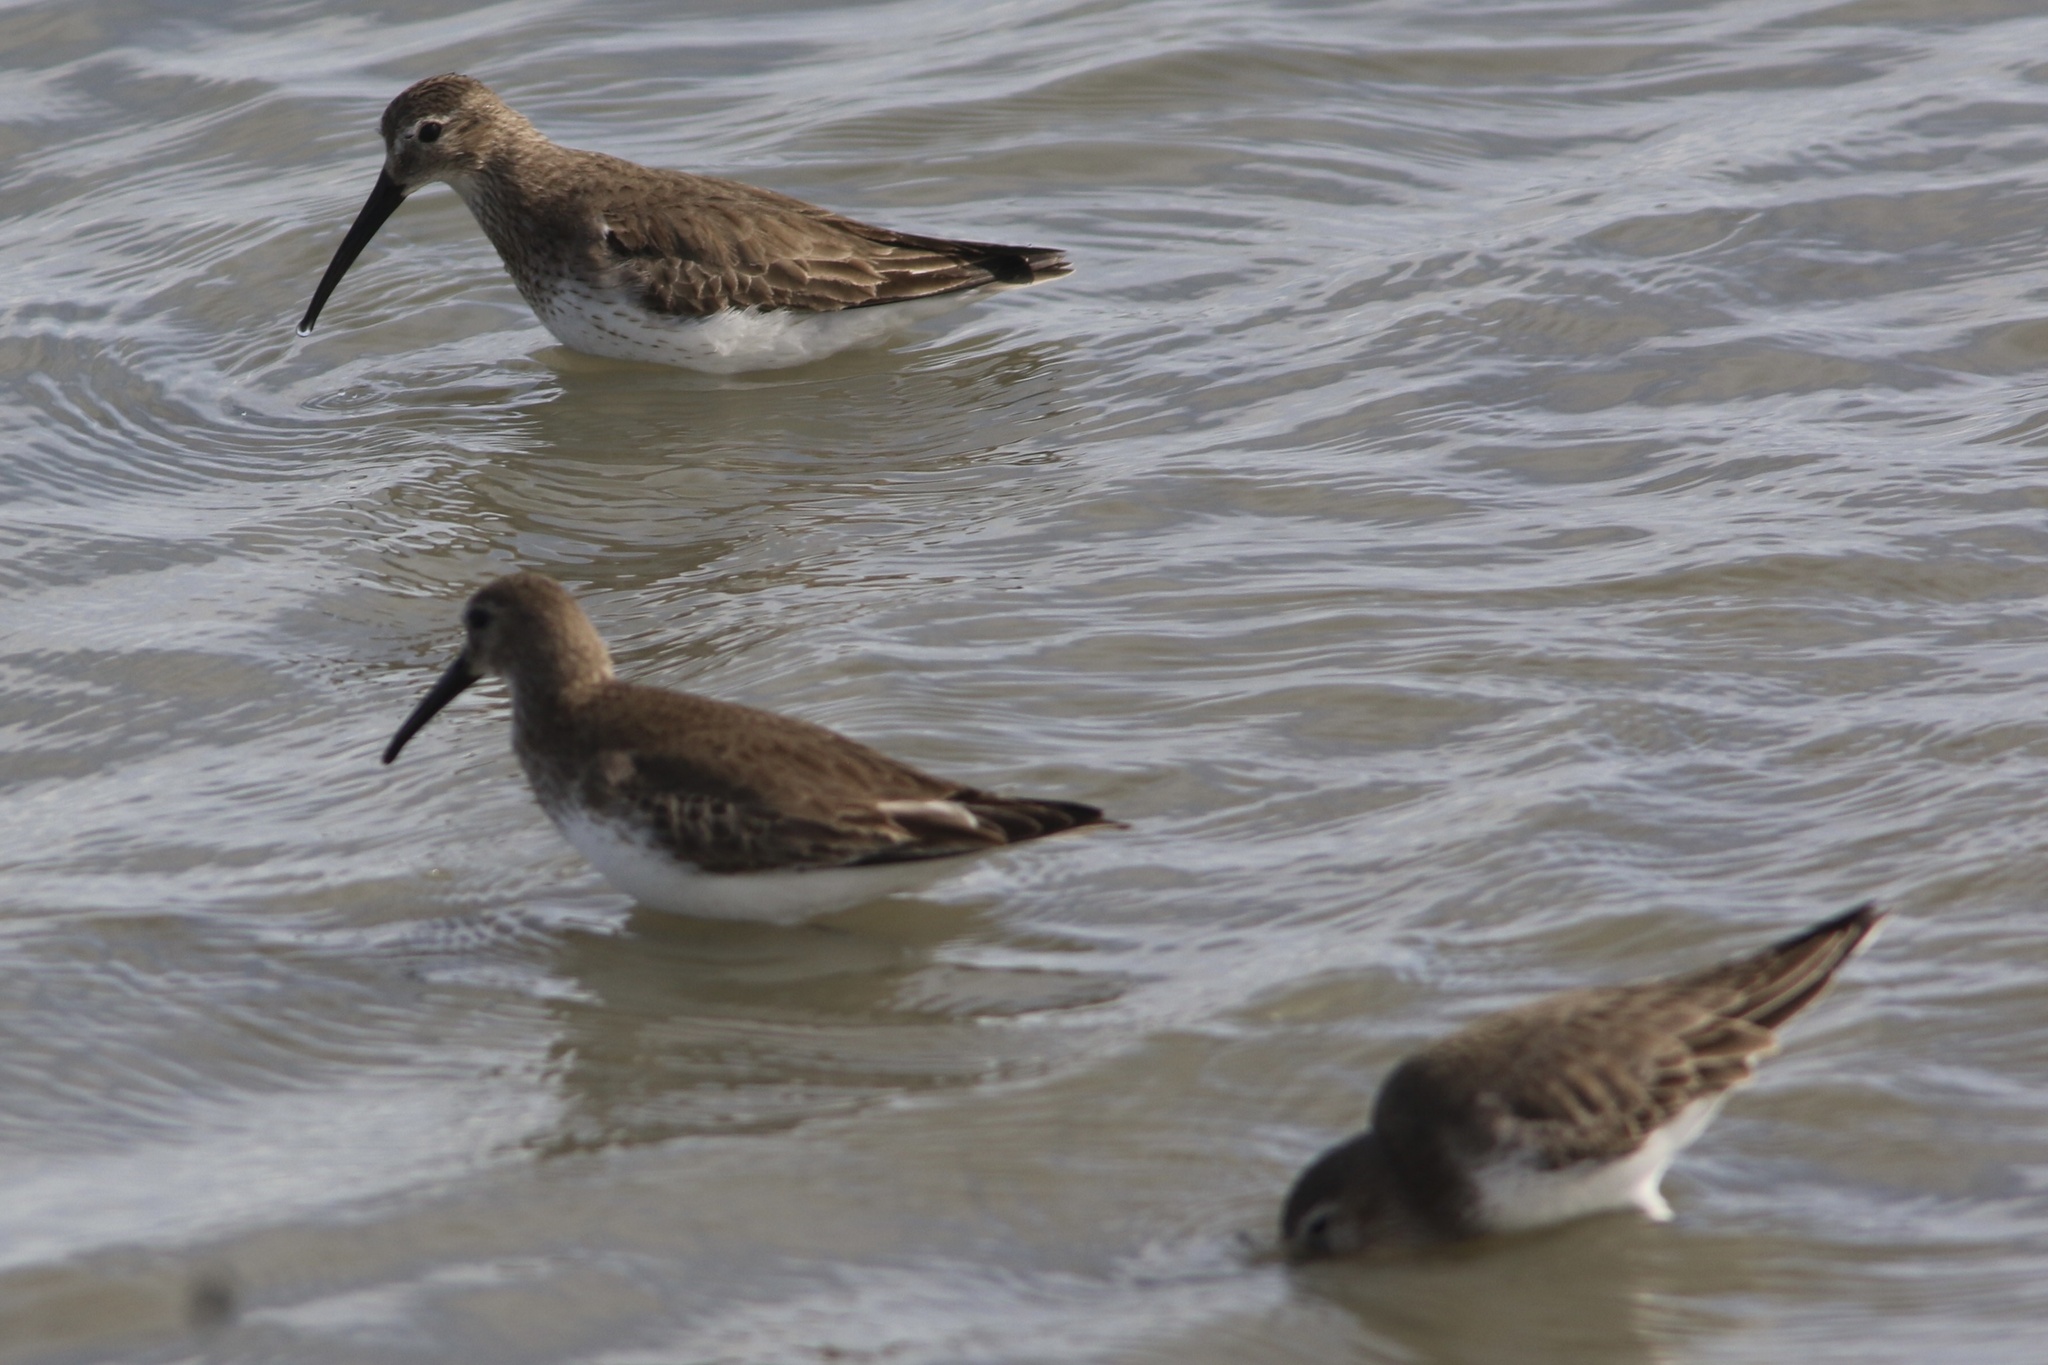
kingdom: Animalia
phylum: Chordata
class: Aves
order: Charadriiformes
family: Scolopacidae
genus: Calidris
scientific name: Calidris alpina
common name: Dunlin
